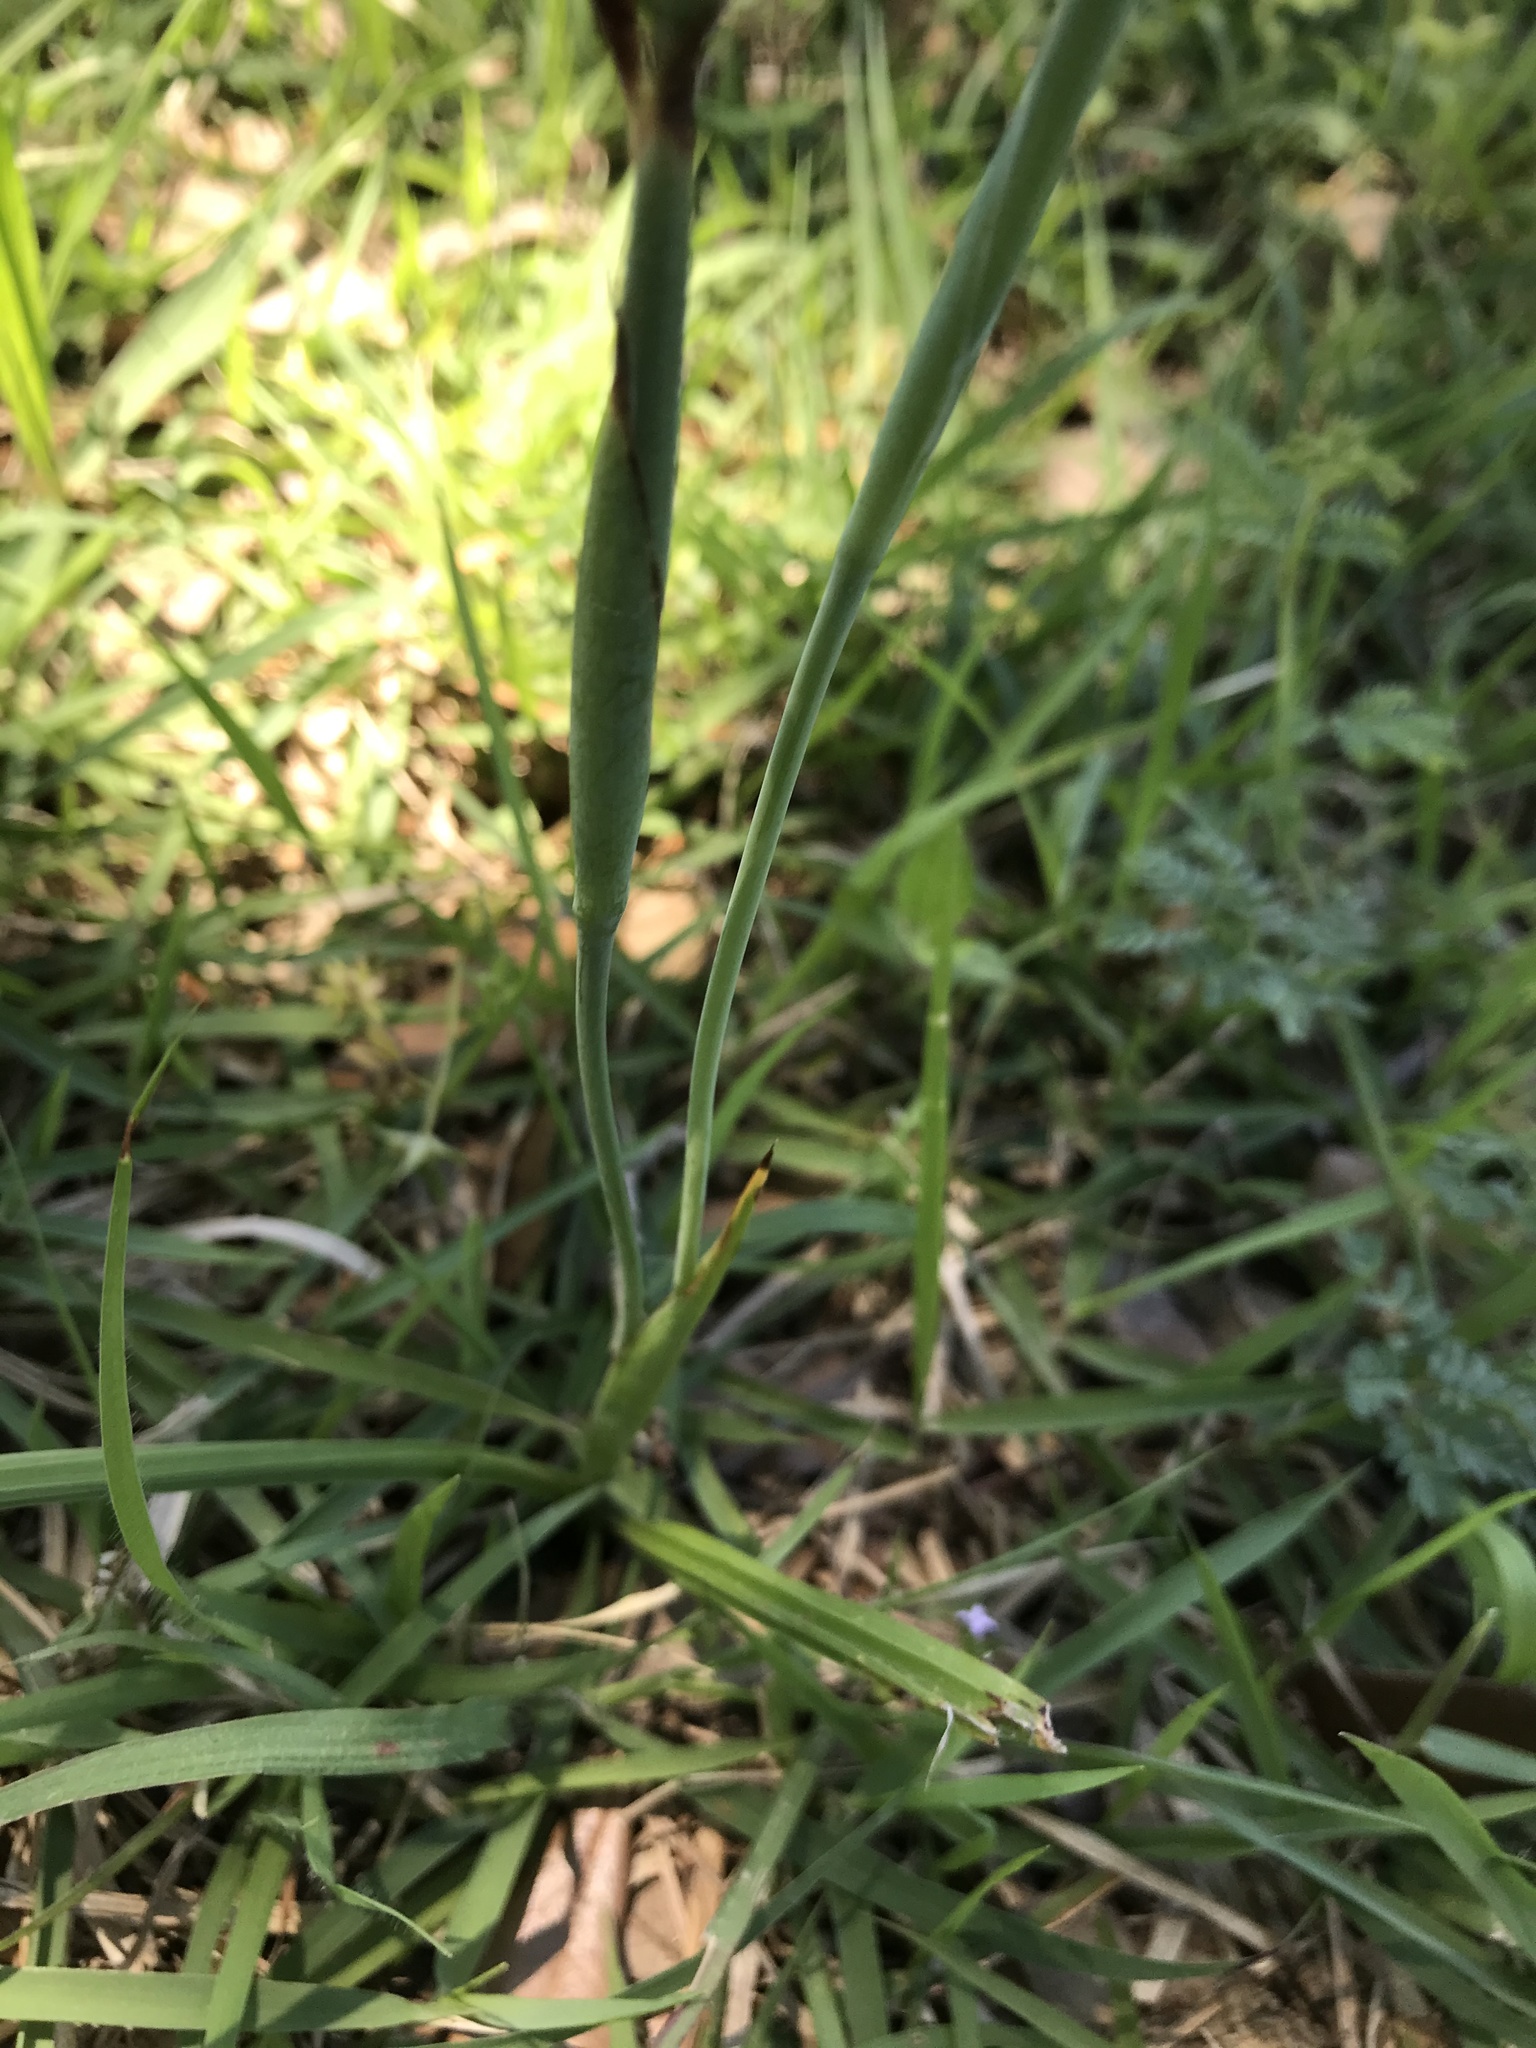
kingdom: Plantae
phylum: Tracheophyta
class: Liliopsida
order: Asparagales
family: Iridaceae
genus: Herbertia
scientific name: Herbertia lahue
